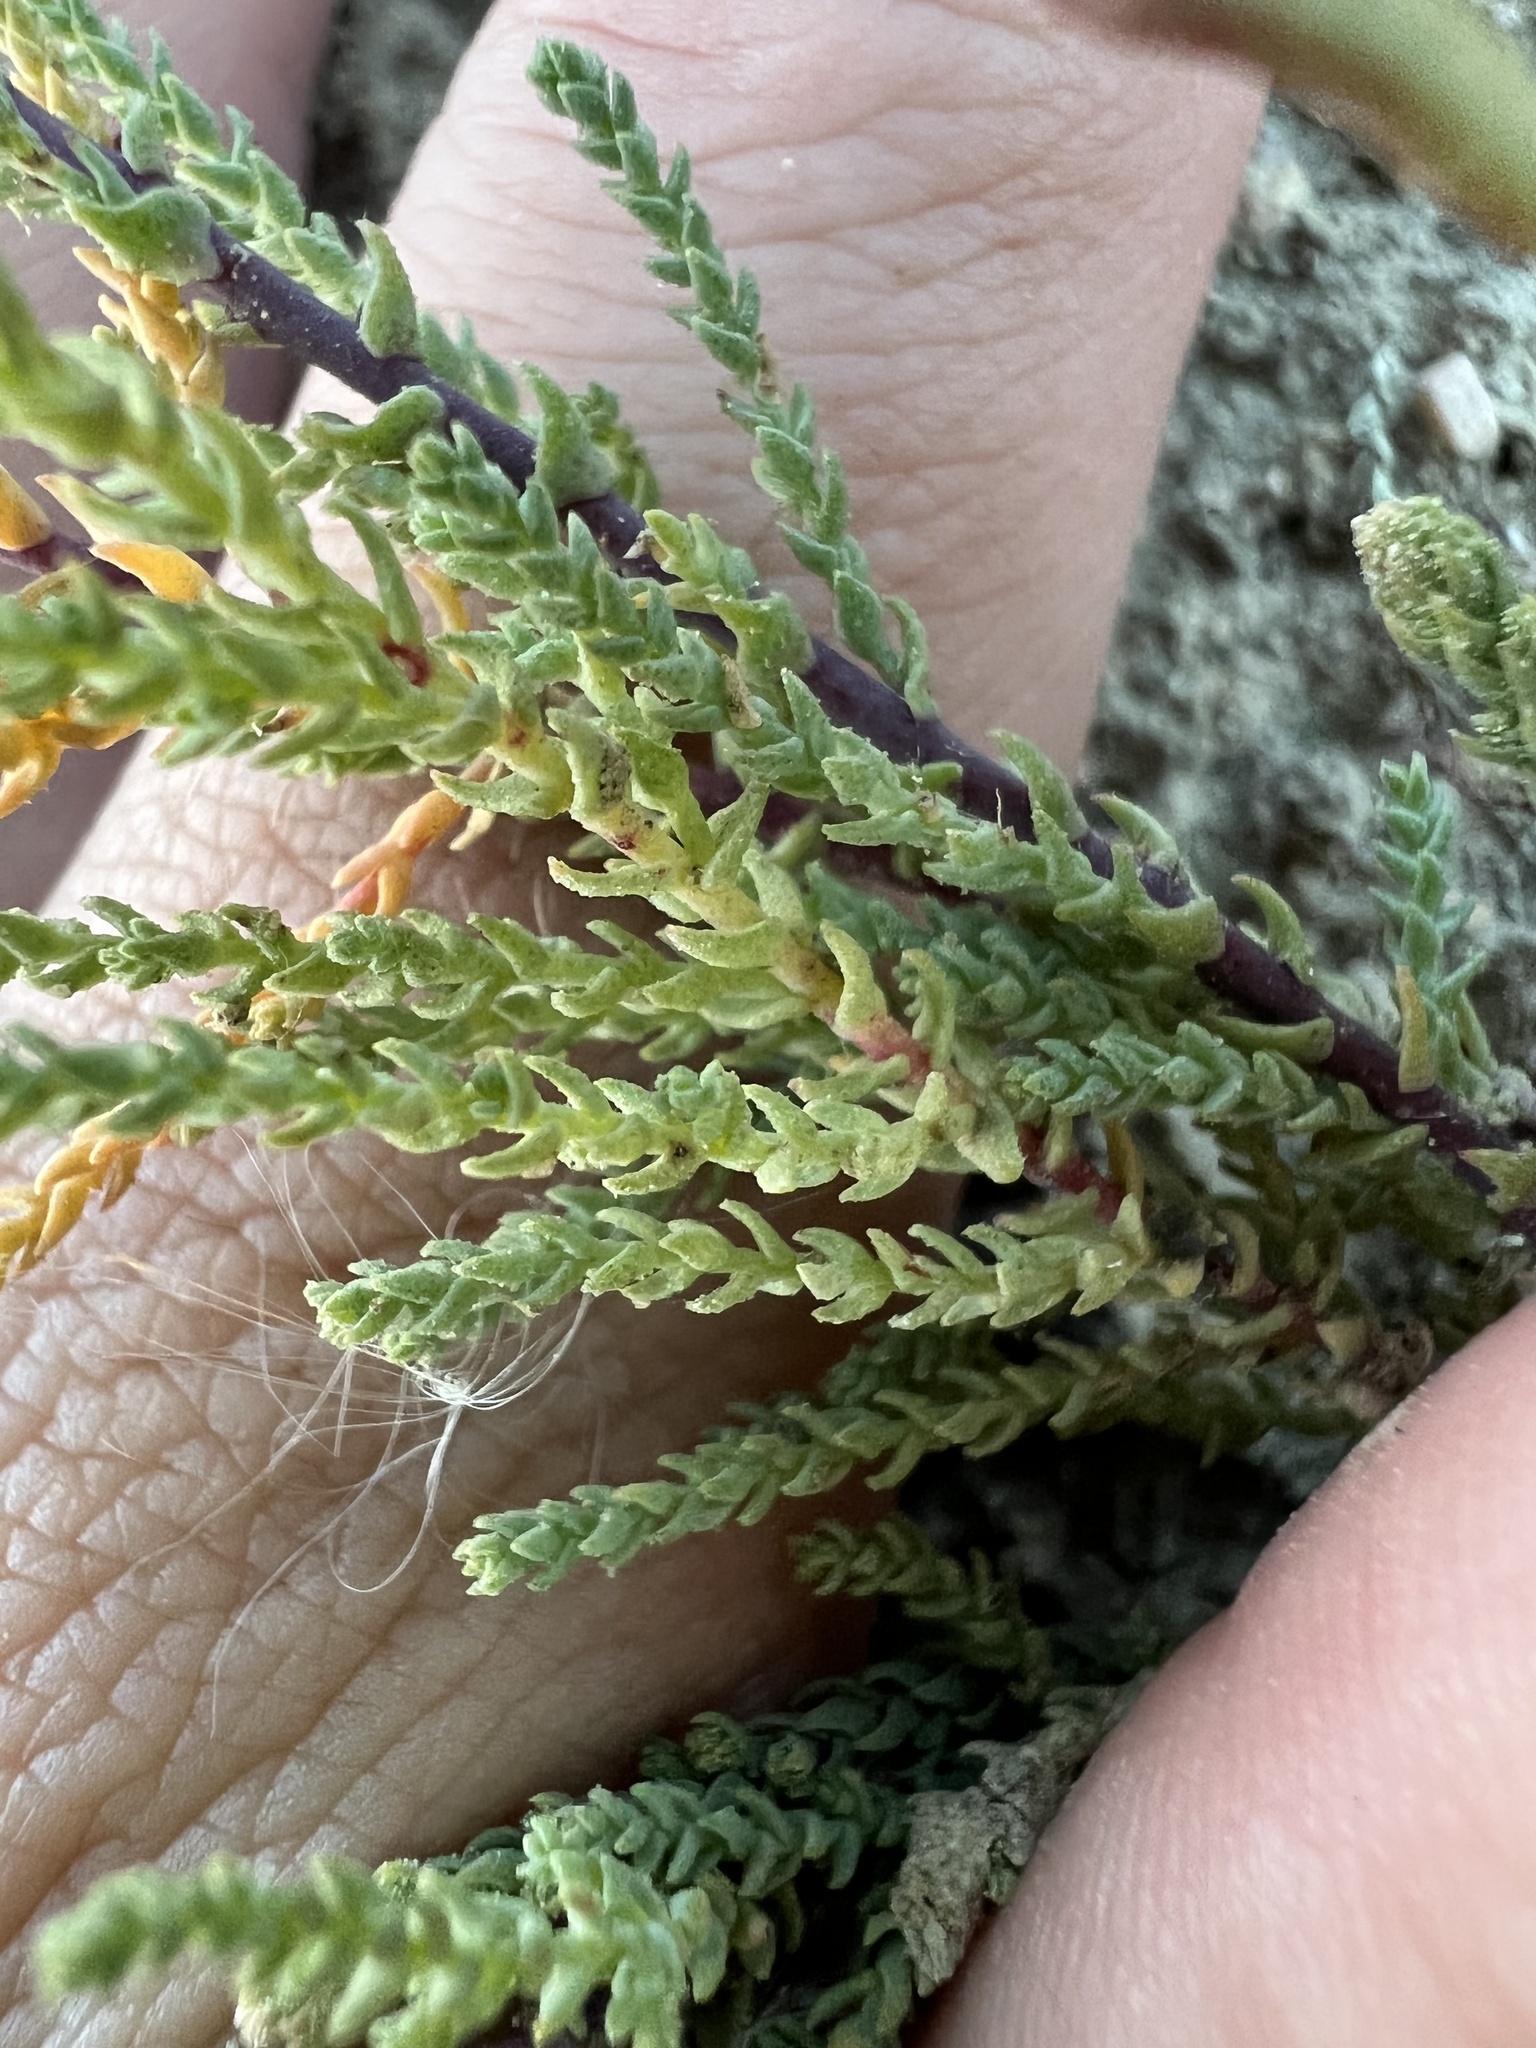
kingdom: Plantae
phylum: Tracheophyta
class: Magnoliopsida
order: Caryophyllales
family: Tamaricaceae
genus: Tamarix
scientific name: Tamarix chinensis
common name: Chinese tamarisk
